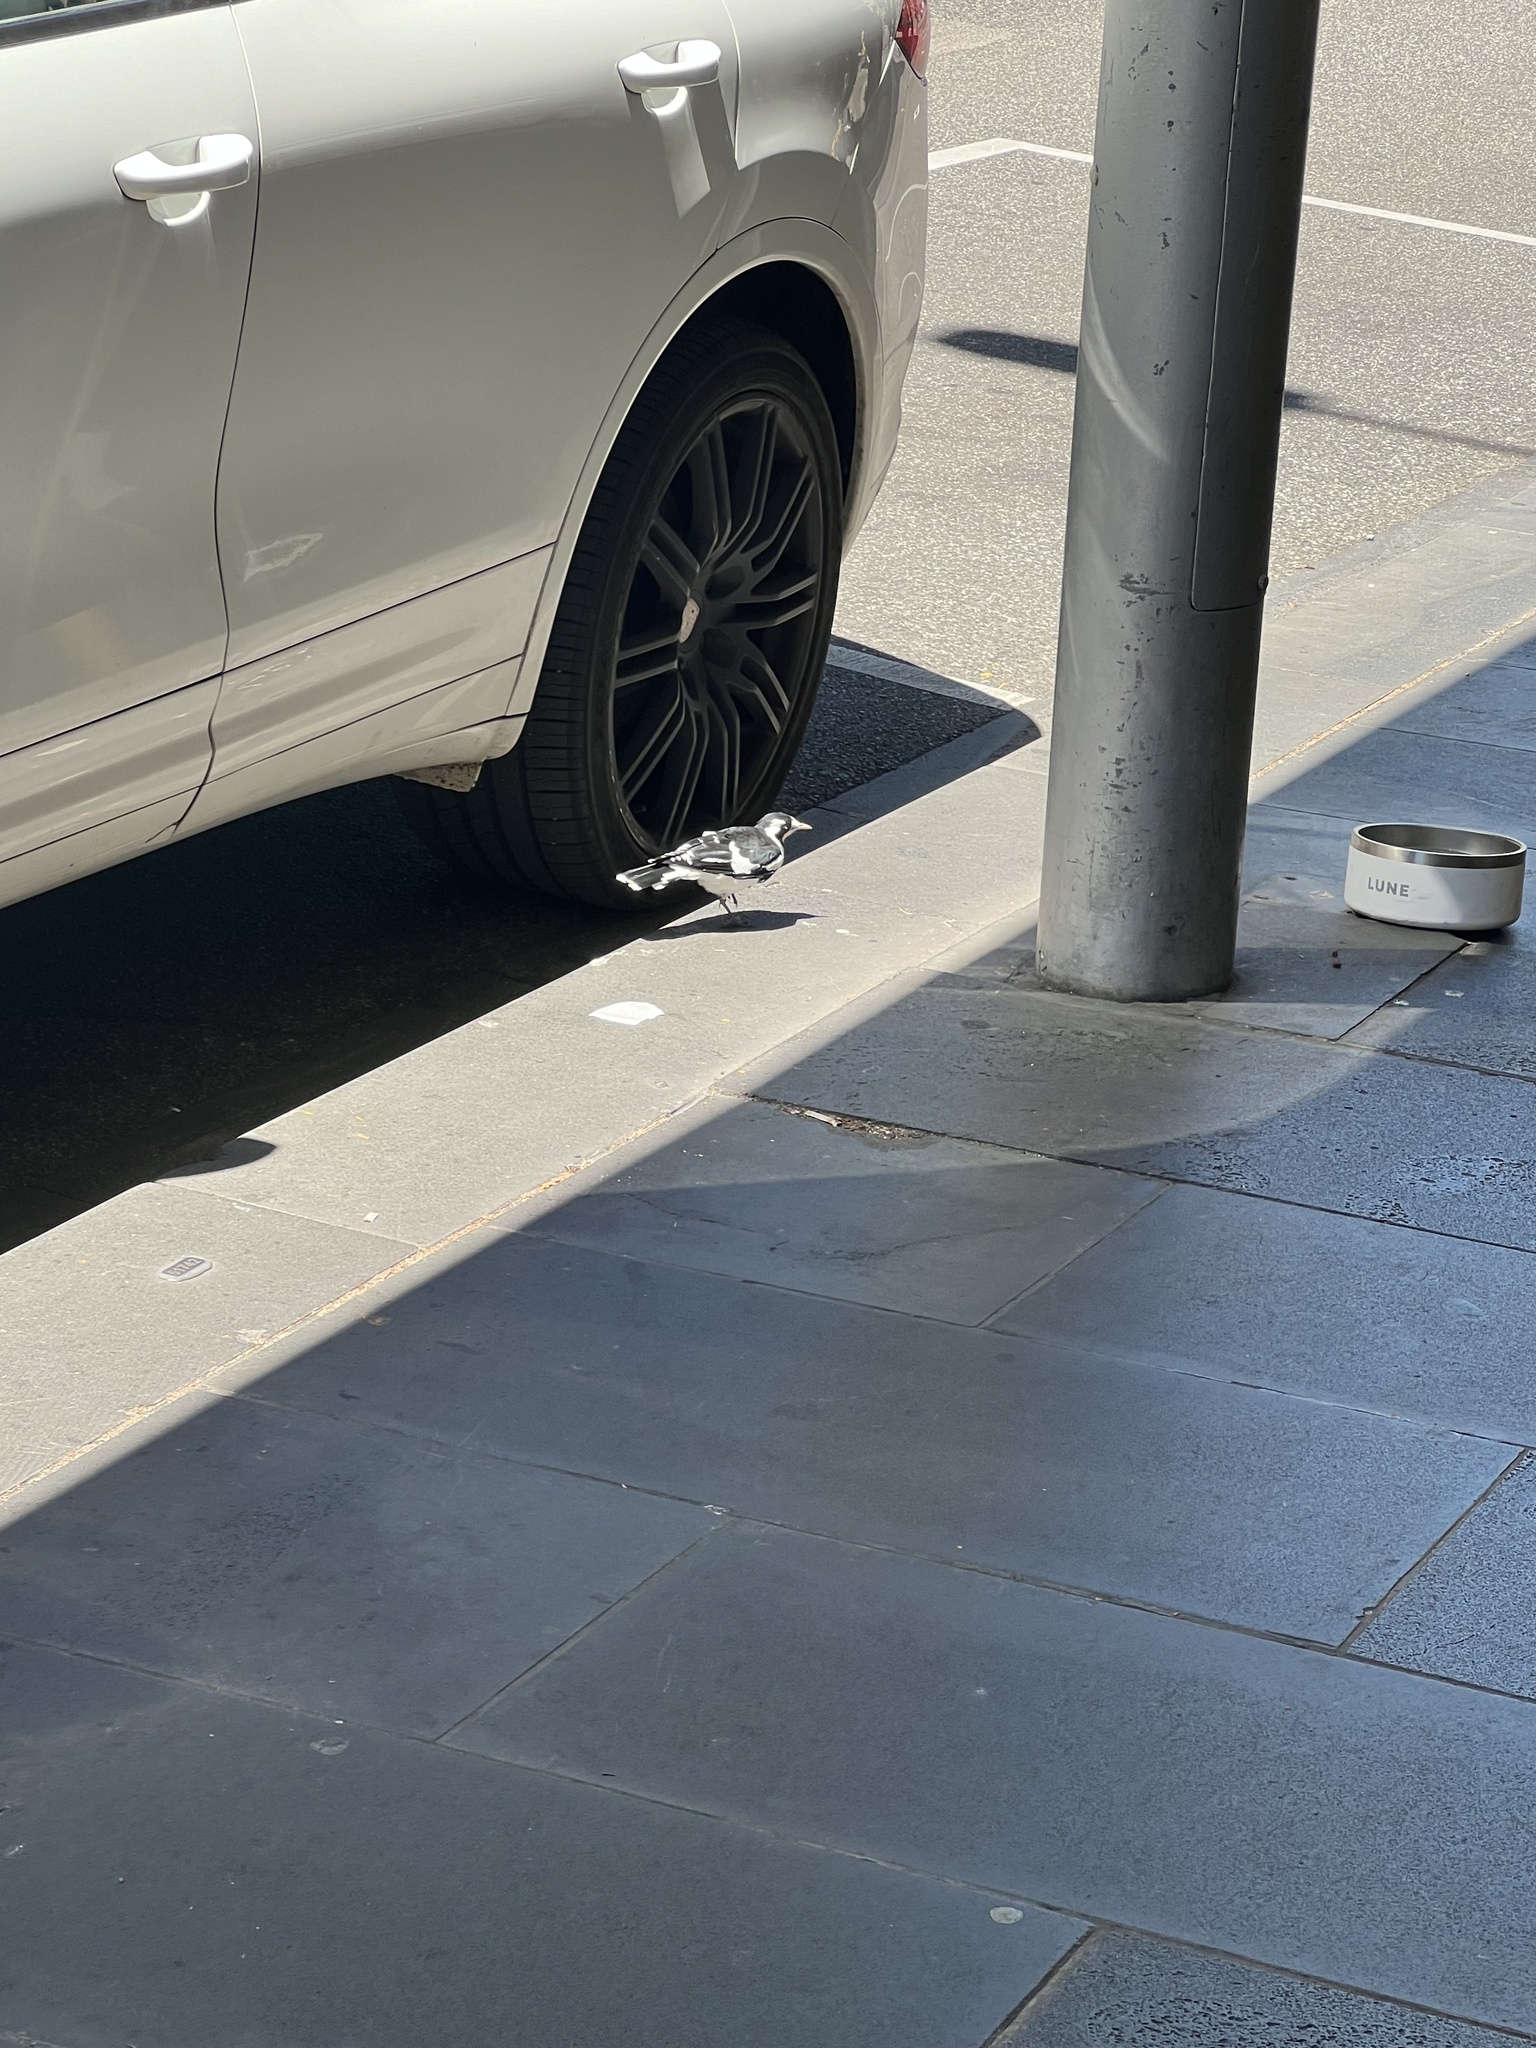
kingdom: Animalia
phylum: Chordata
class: Aves
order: Passeriformes
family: Monarchidae
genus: Grallina
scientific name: Grallina cyanoleuca
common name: Magpie-lark
